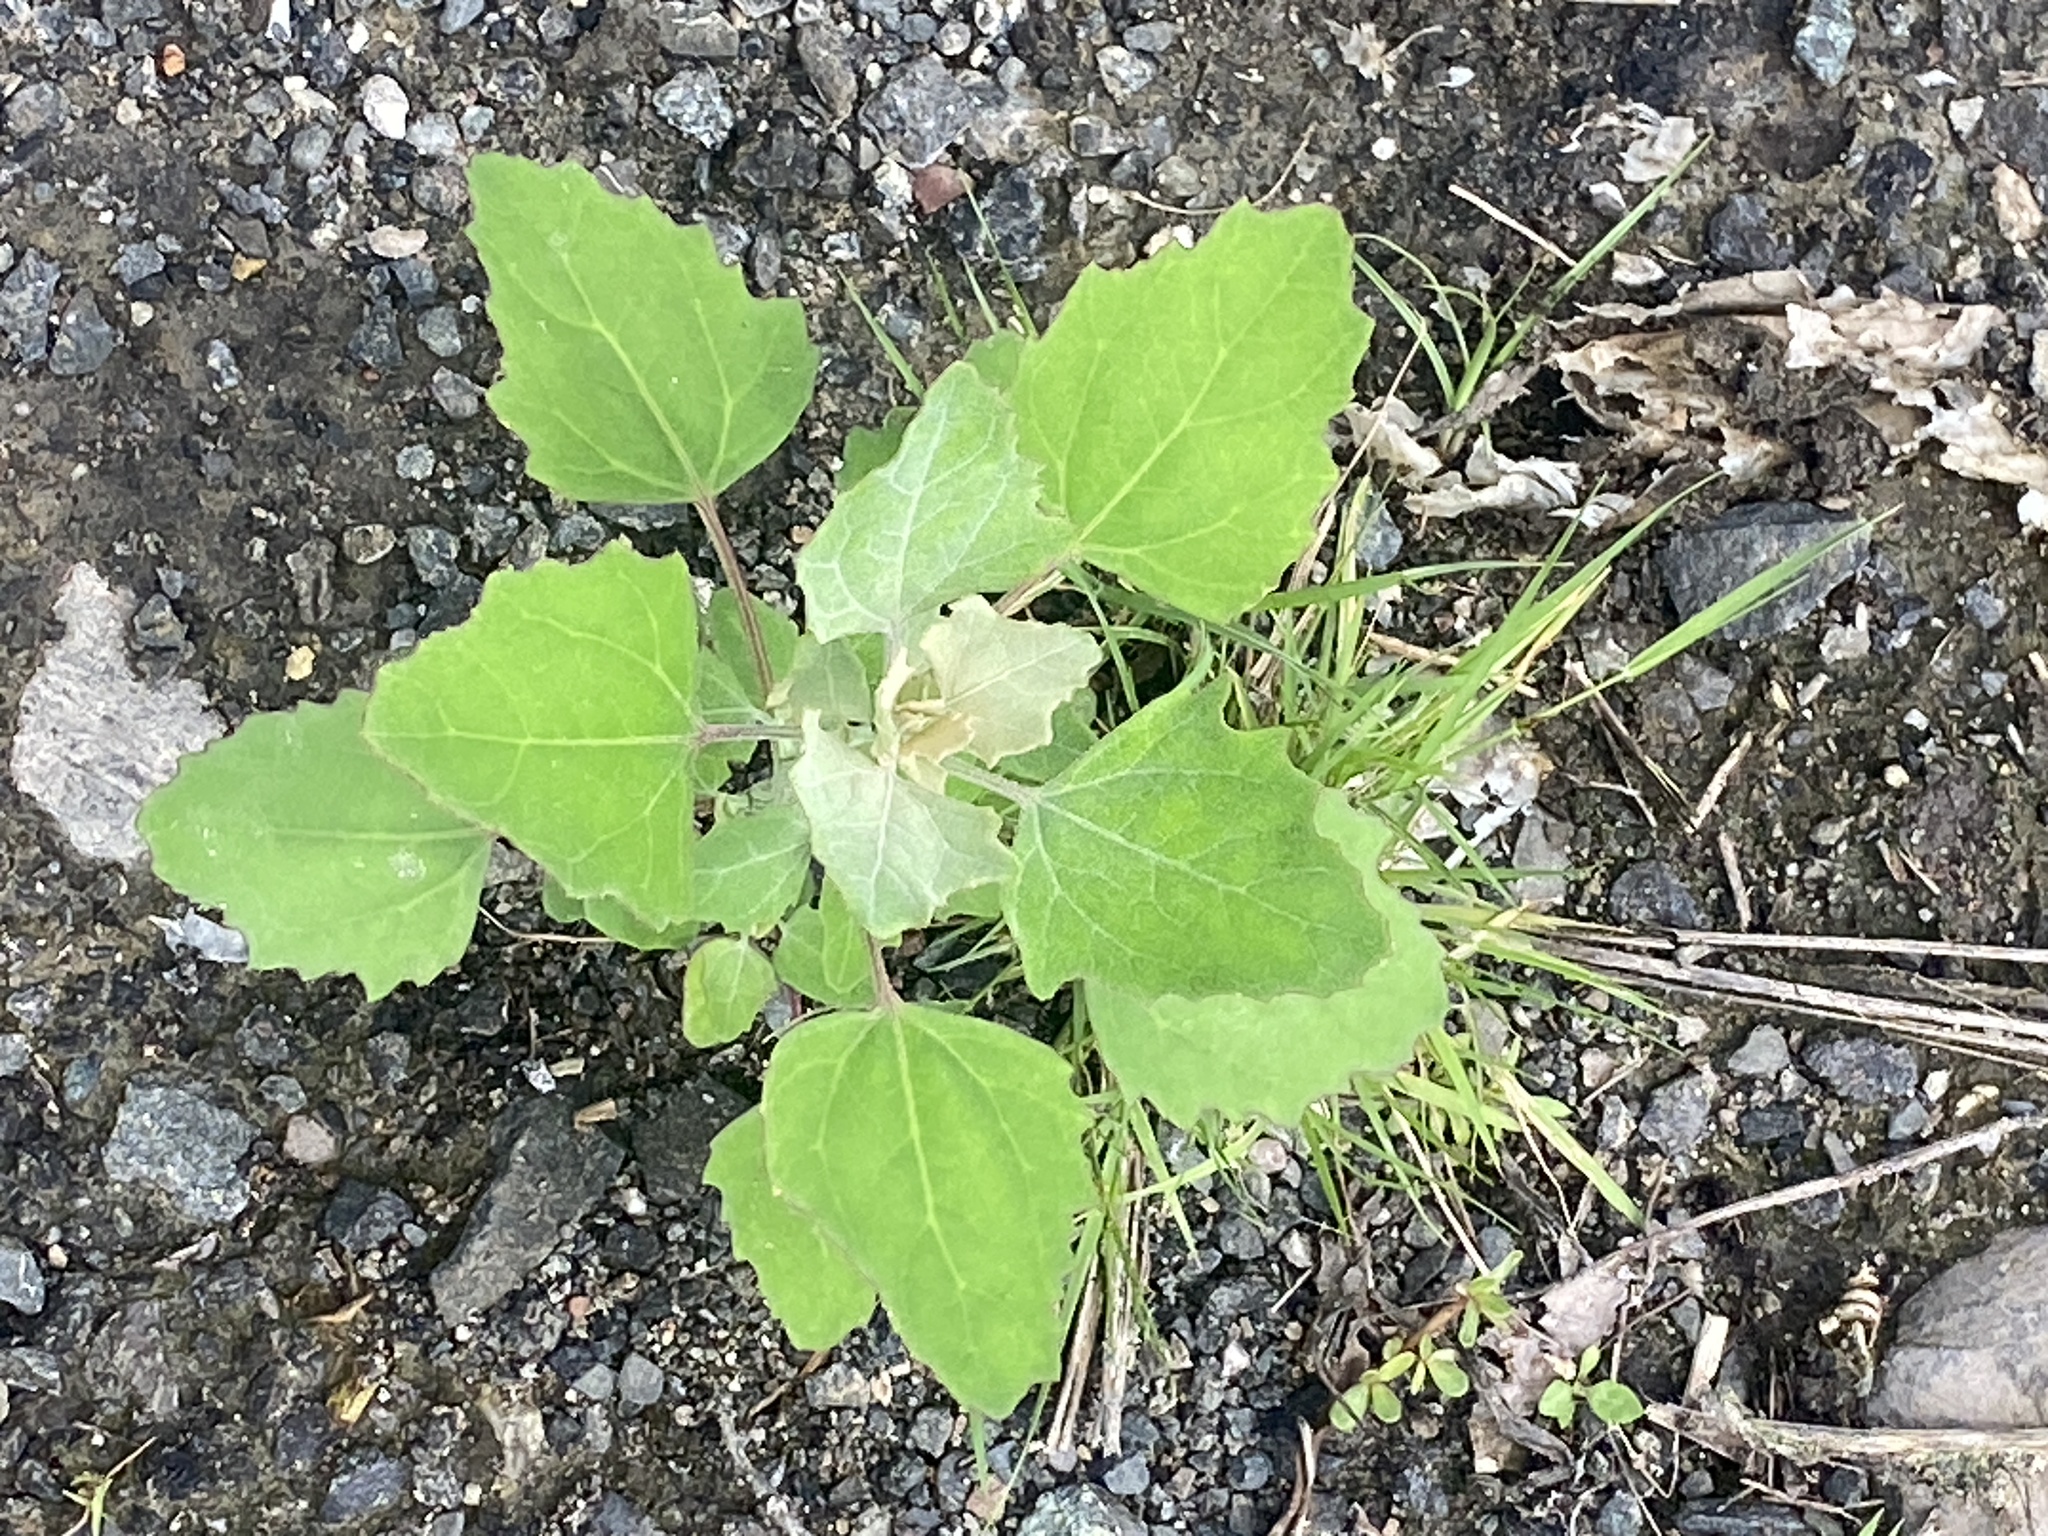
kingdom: Plantae
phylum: Tracheophyta
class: Magnoliopsida
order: Caryophyllales
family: Amaranthaceae
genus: Chenopodium
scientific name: Chenopodium album
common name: Fat-hen
